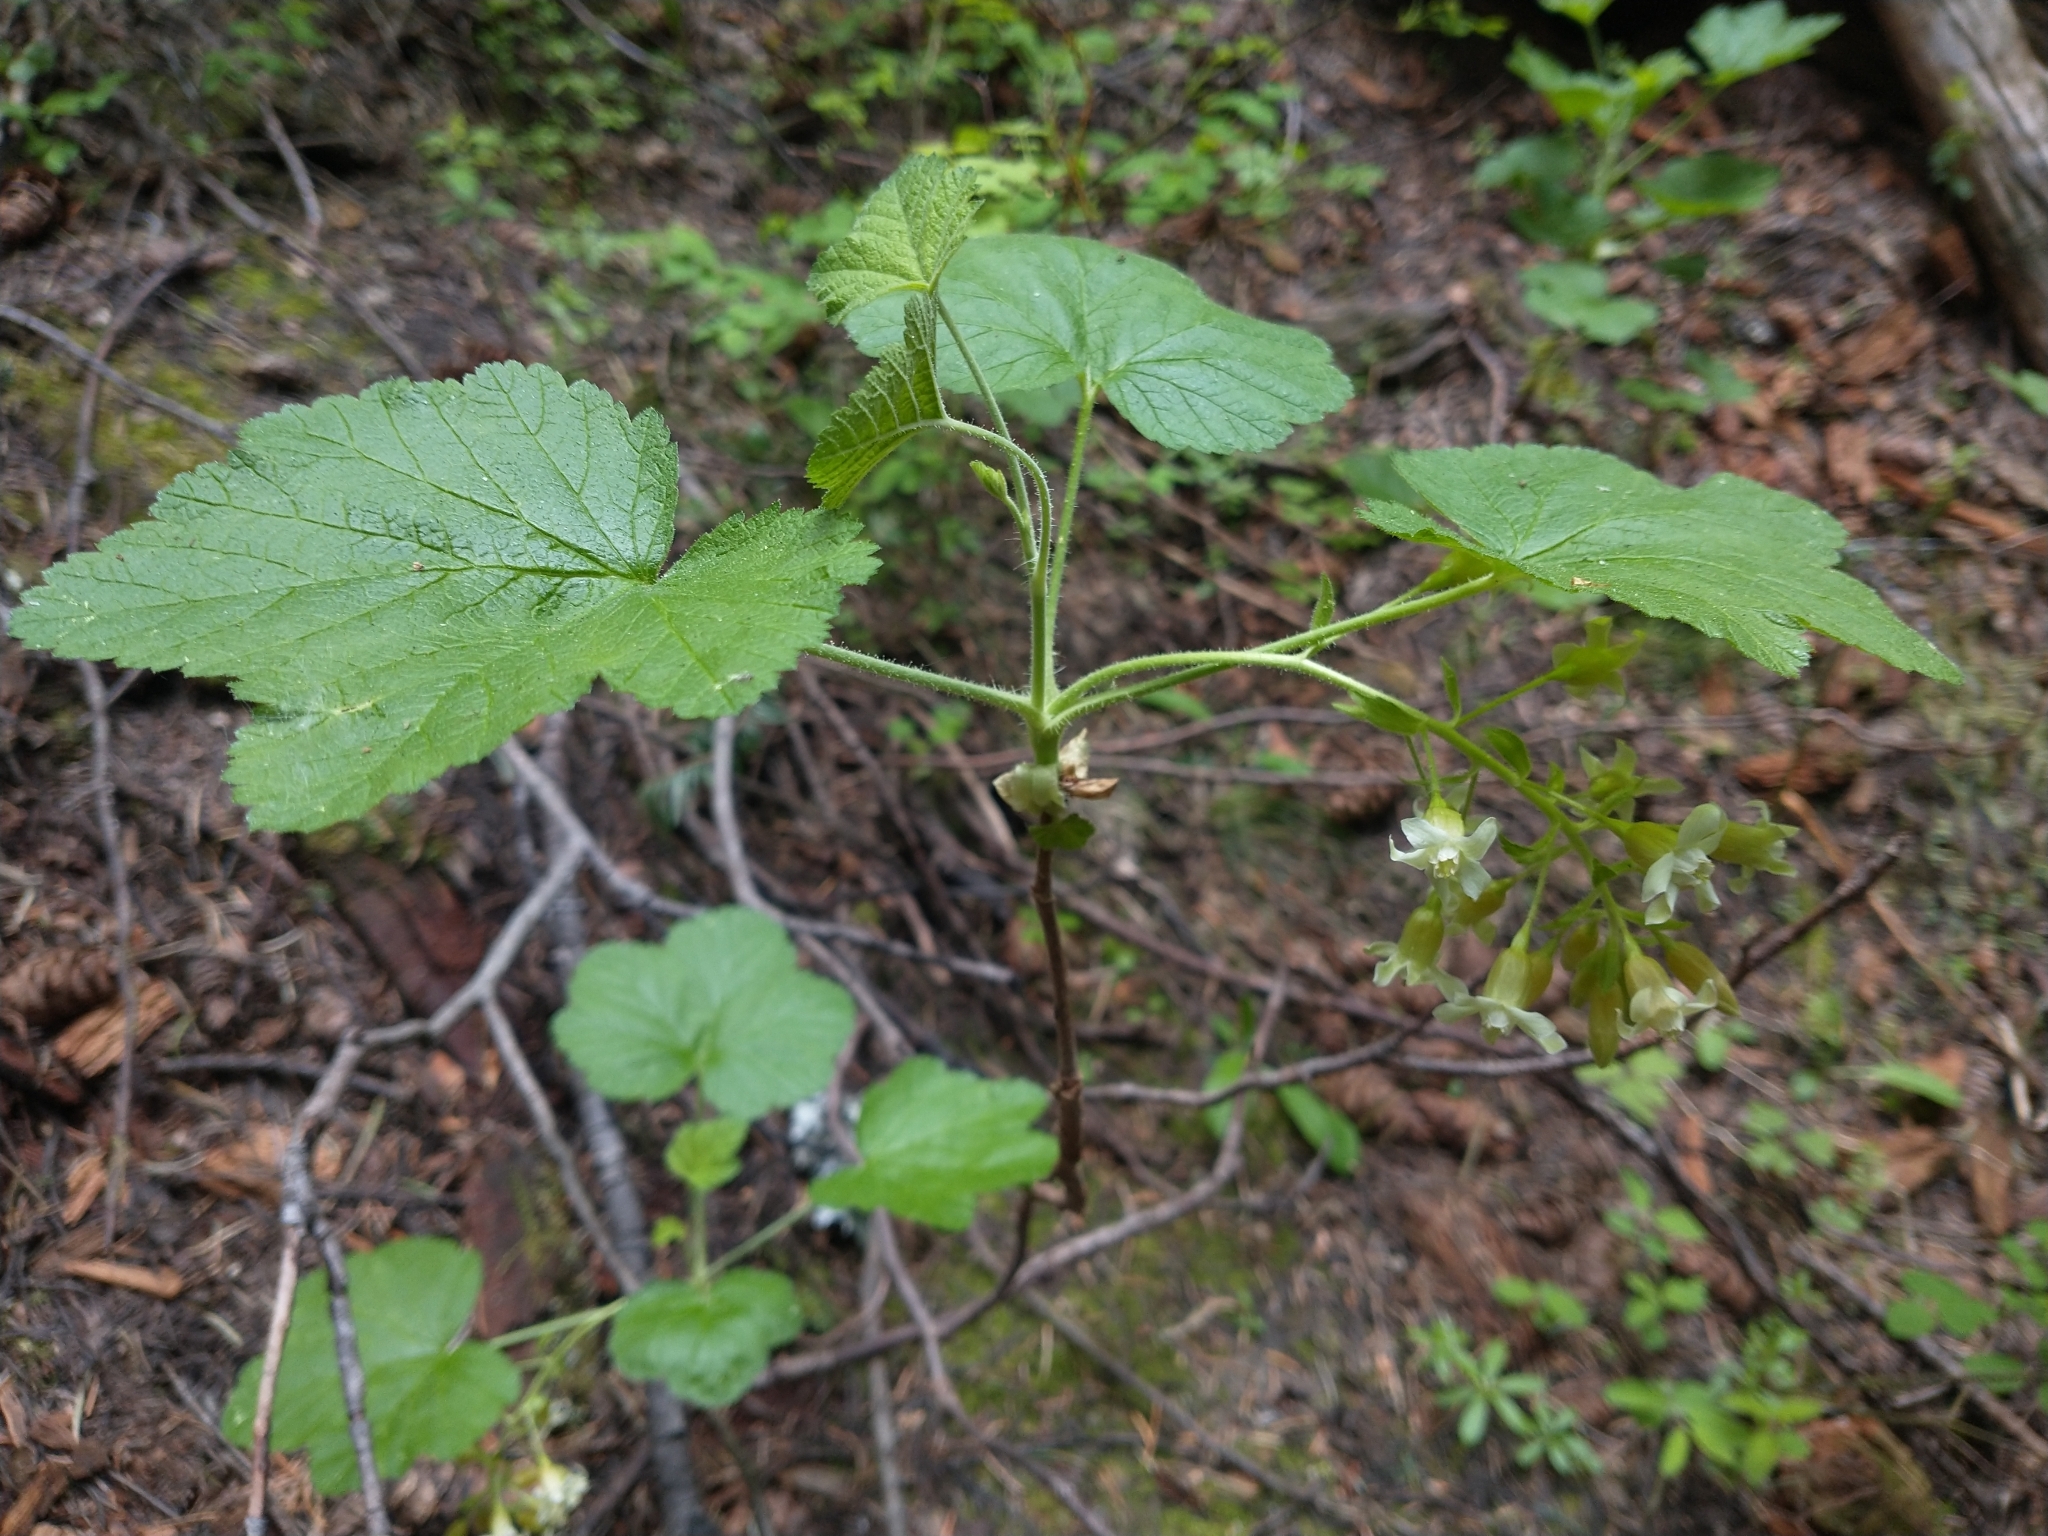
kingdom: Plantae
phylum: Tracheophyta
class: Magnoliopsida
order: Saxifragales
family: Grossulariaceae
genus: Ribes
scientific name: Ribes viscosissimum
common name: Sticky currant
